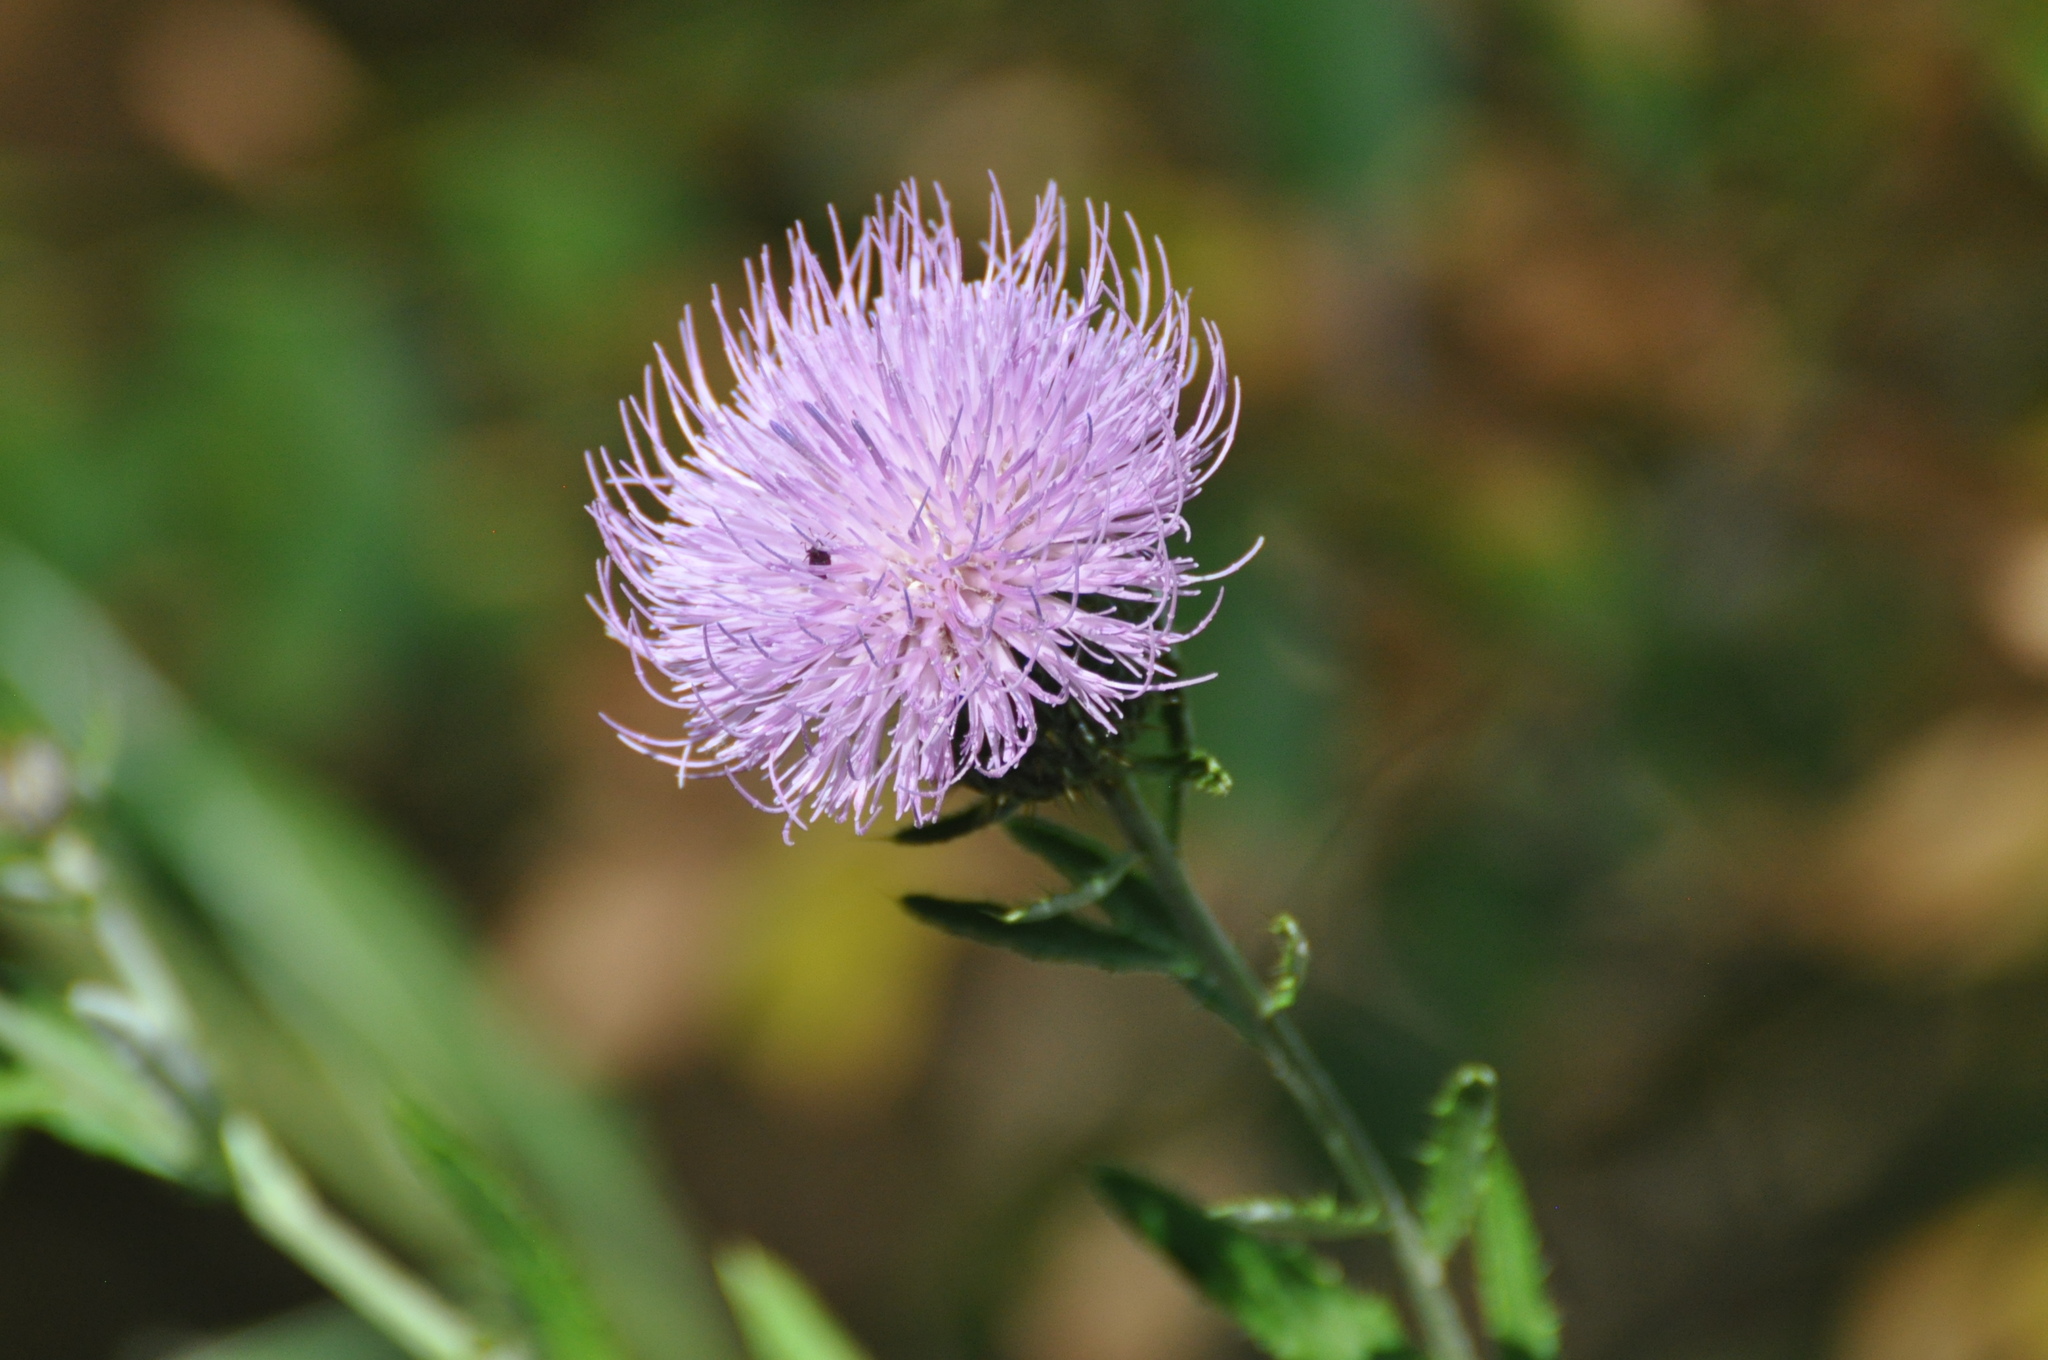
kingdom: Plantae
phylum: Tracheophyta
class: Magnoliopsida
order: Asterales
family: Asteraceae
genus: Cirsium
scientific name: Cirsium altissimum
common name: Roadside thistle
